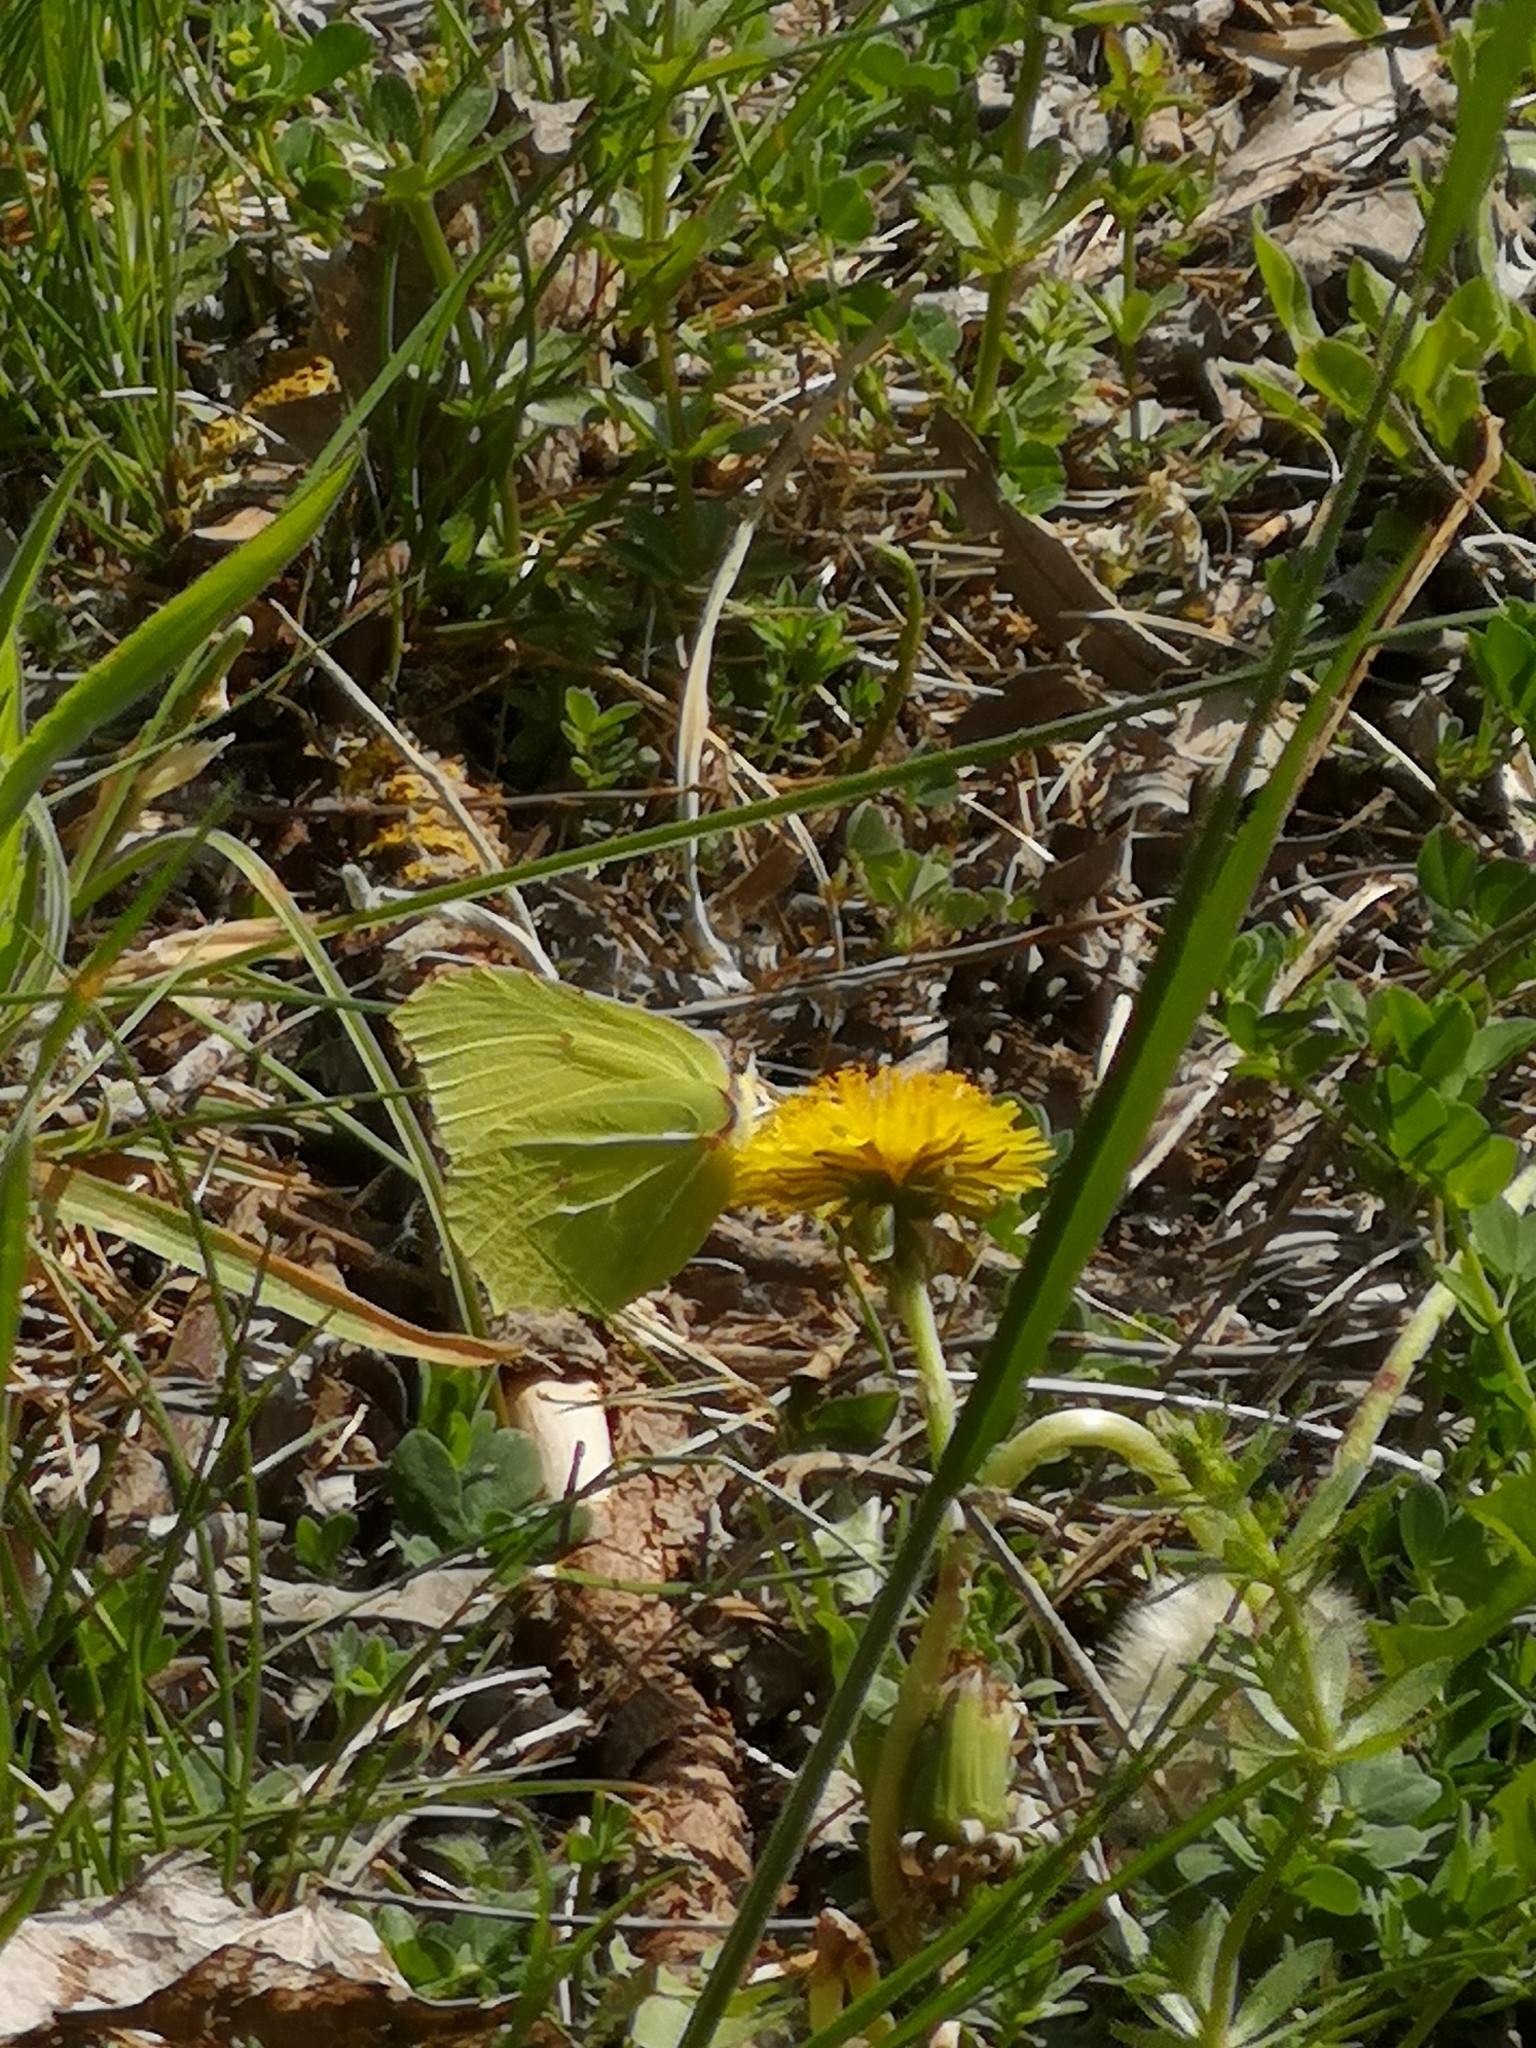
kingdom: Animalia
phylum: Arthropoda
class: Insecta
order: Lepidoptera
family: Pieridae
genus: Gonepteryx
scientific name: Gonepteryx rhamni
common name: Brimstone
